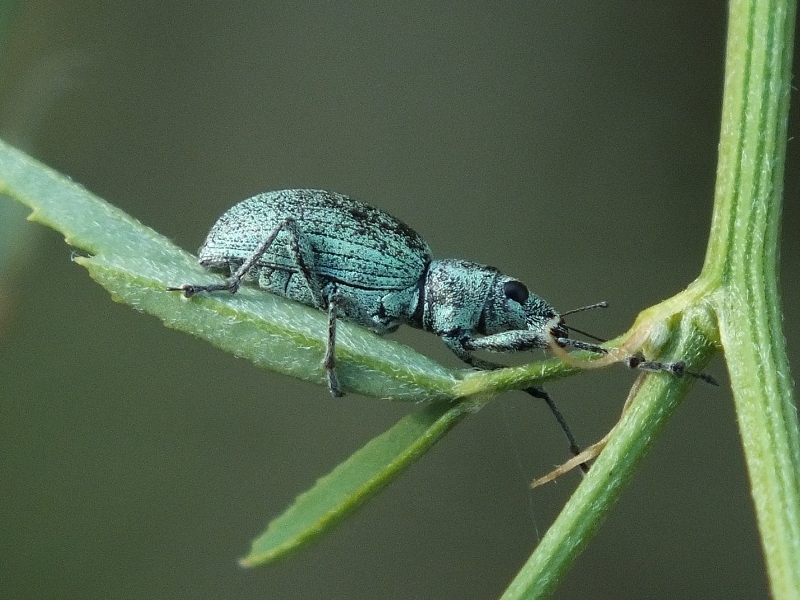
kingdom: Animalia
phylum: Arthropoda
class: Insecta
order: Coleoptera
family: Curculionidae
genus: Eusomus
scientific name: Eusomus ovulum
